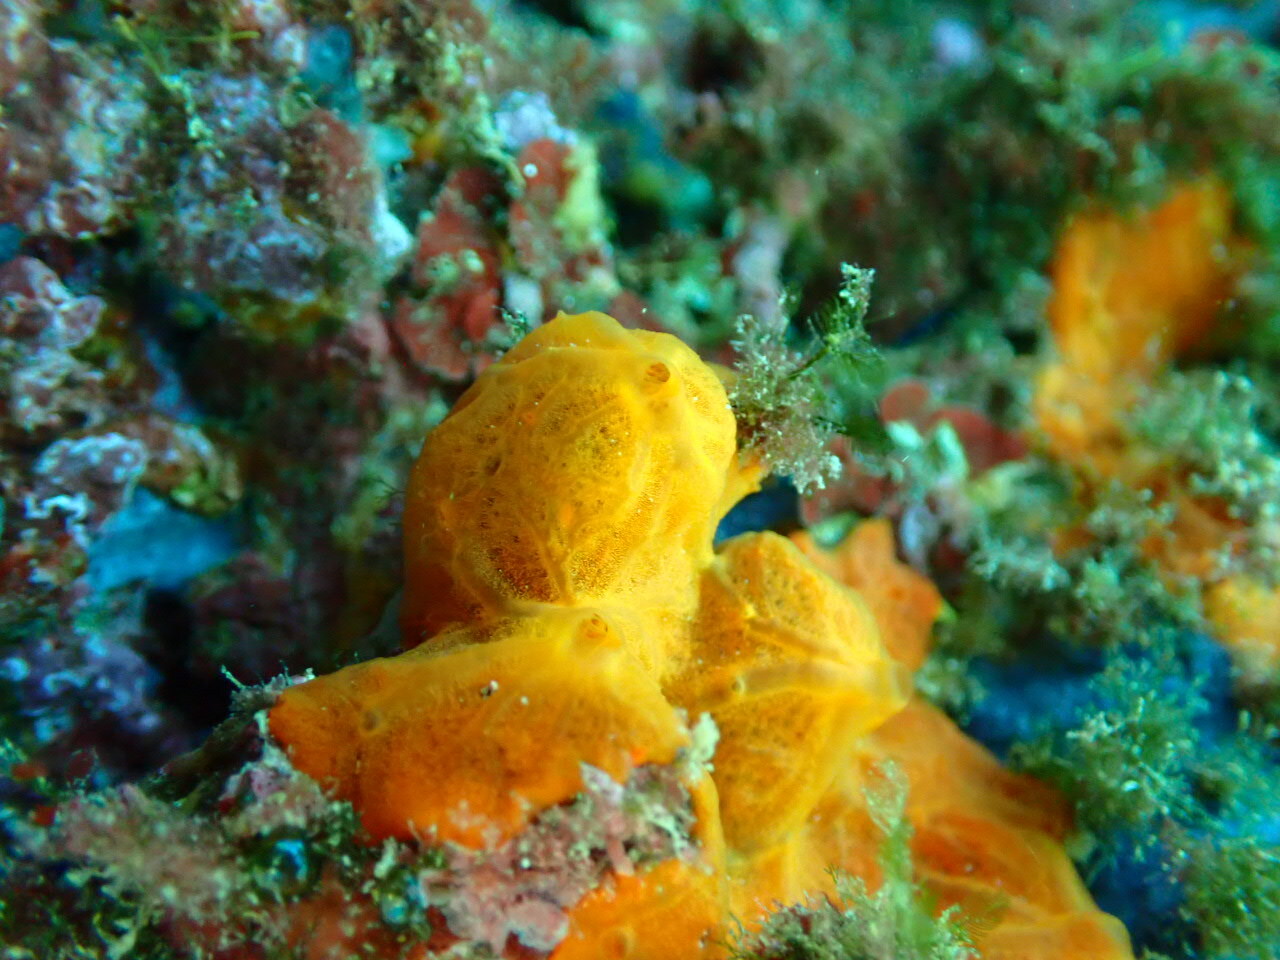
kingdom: Animalia
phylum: Porifera
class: Demospongiae
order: Poecilosclerida
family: Crambeidae
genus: Crambe
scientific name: Crambe crambe
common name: Orange-red encrusting sponge
